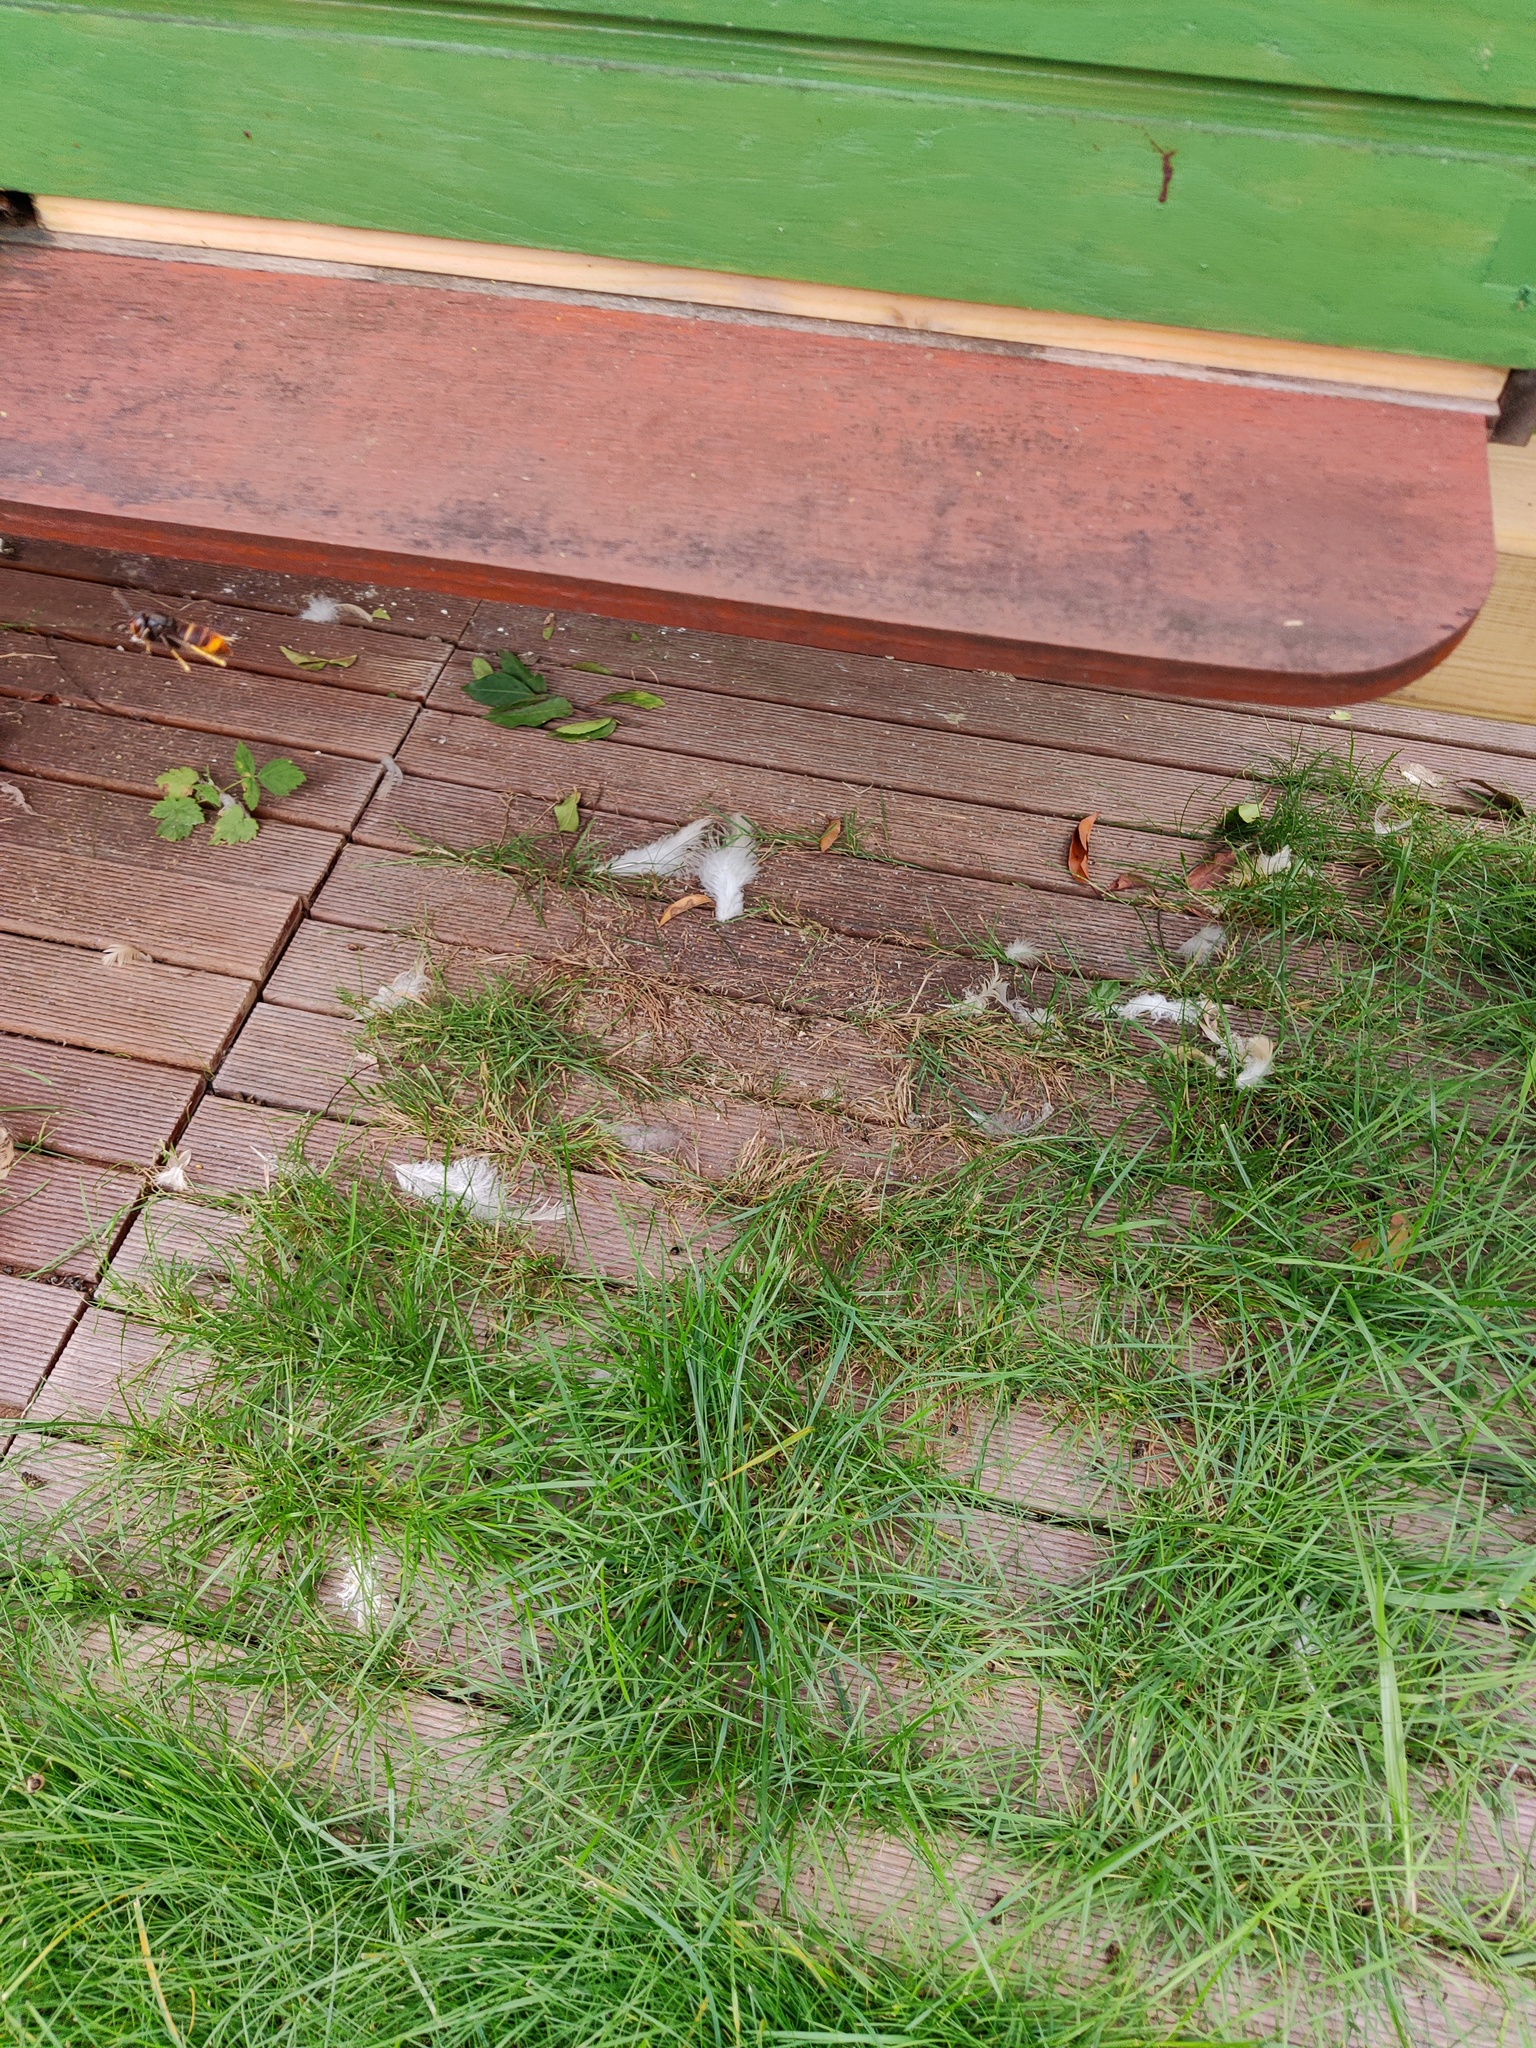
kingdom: Animalia
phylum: Arthropoda
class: Insecta
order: Hymenoptera
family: Vespidae
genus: Vespa
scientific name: Vespa velutina
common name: Asian hornet
